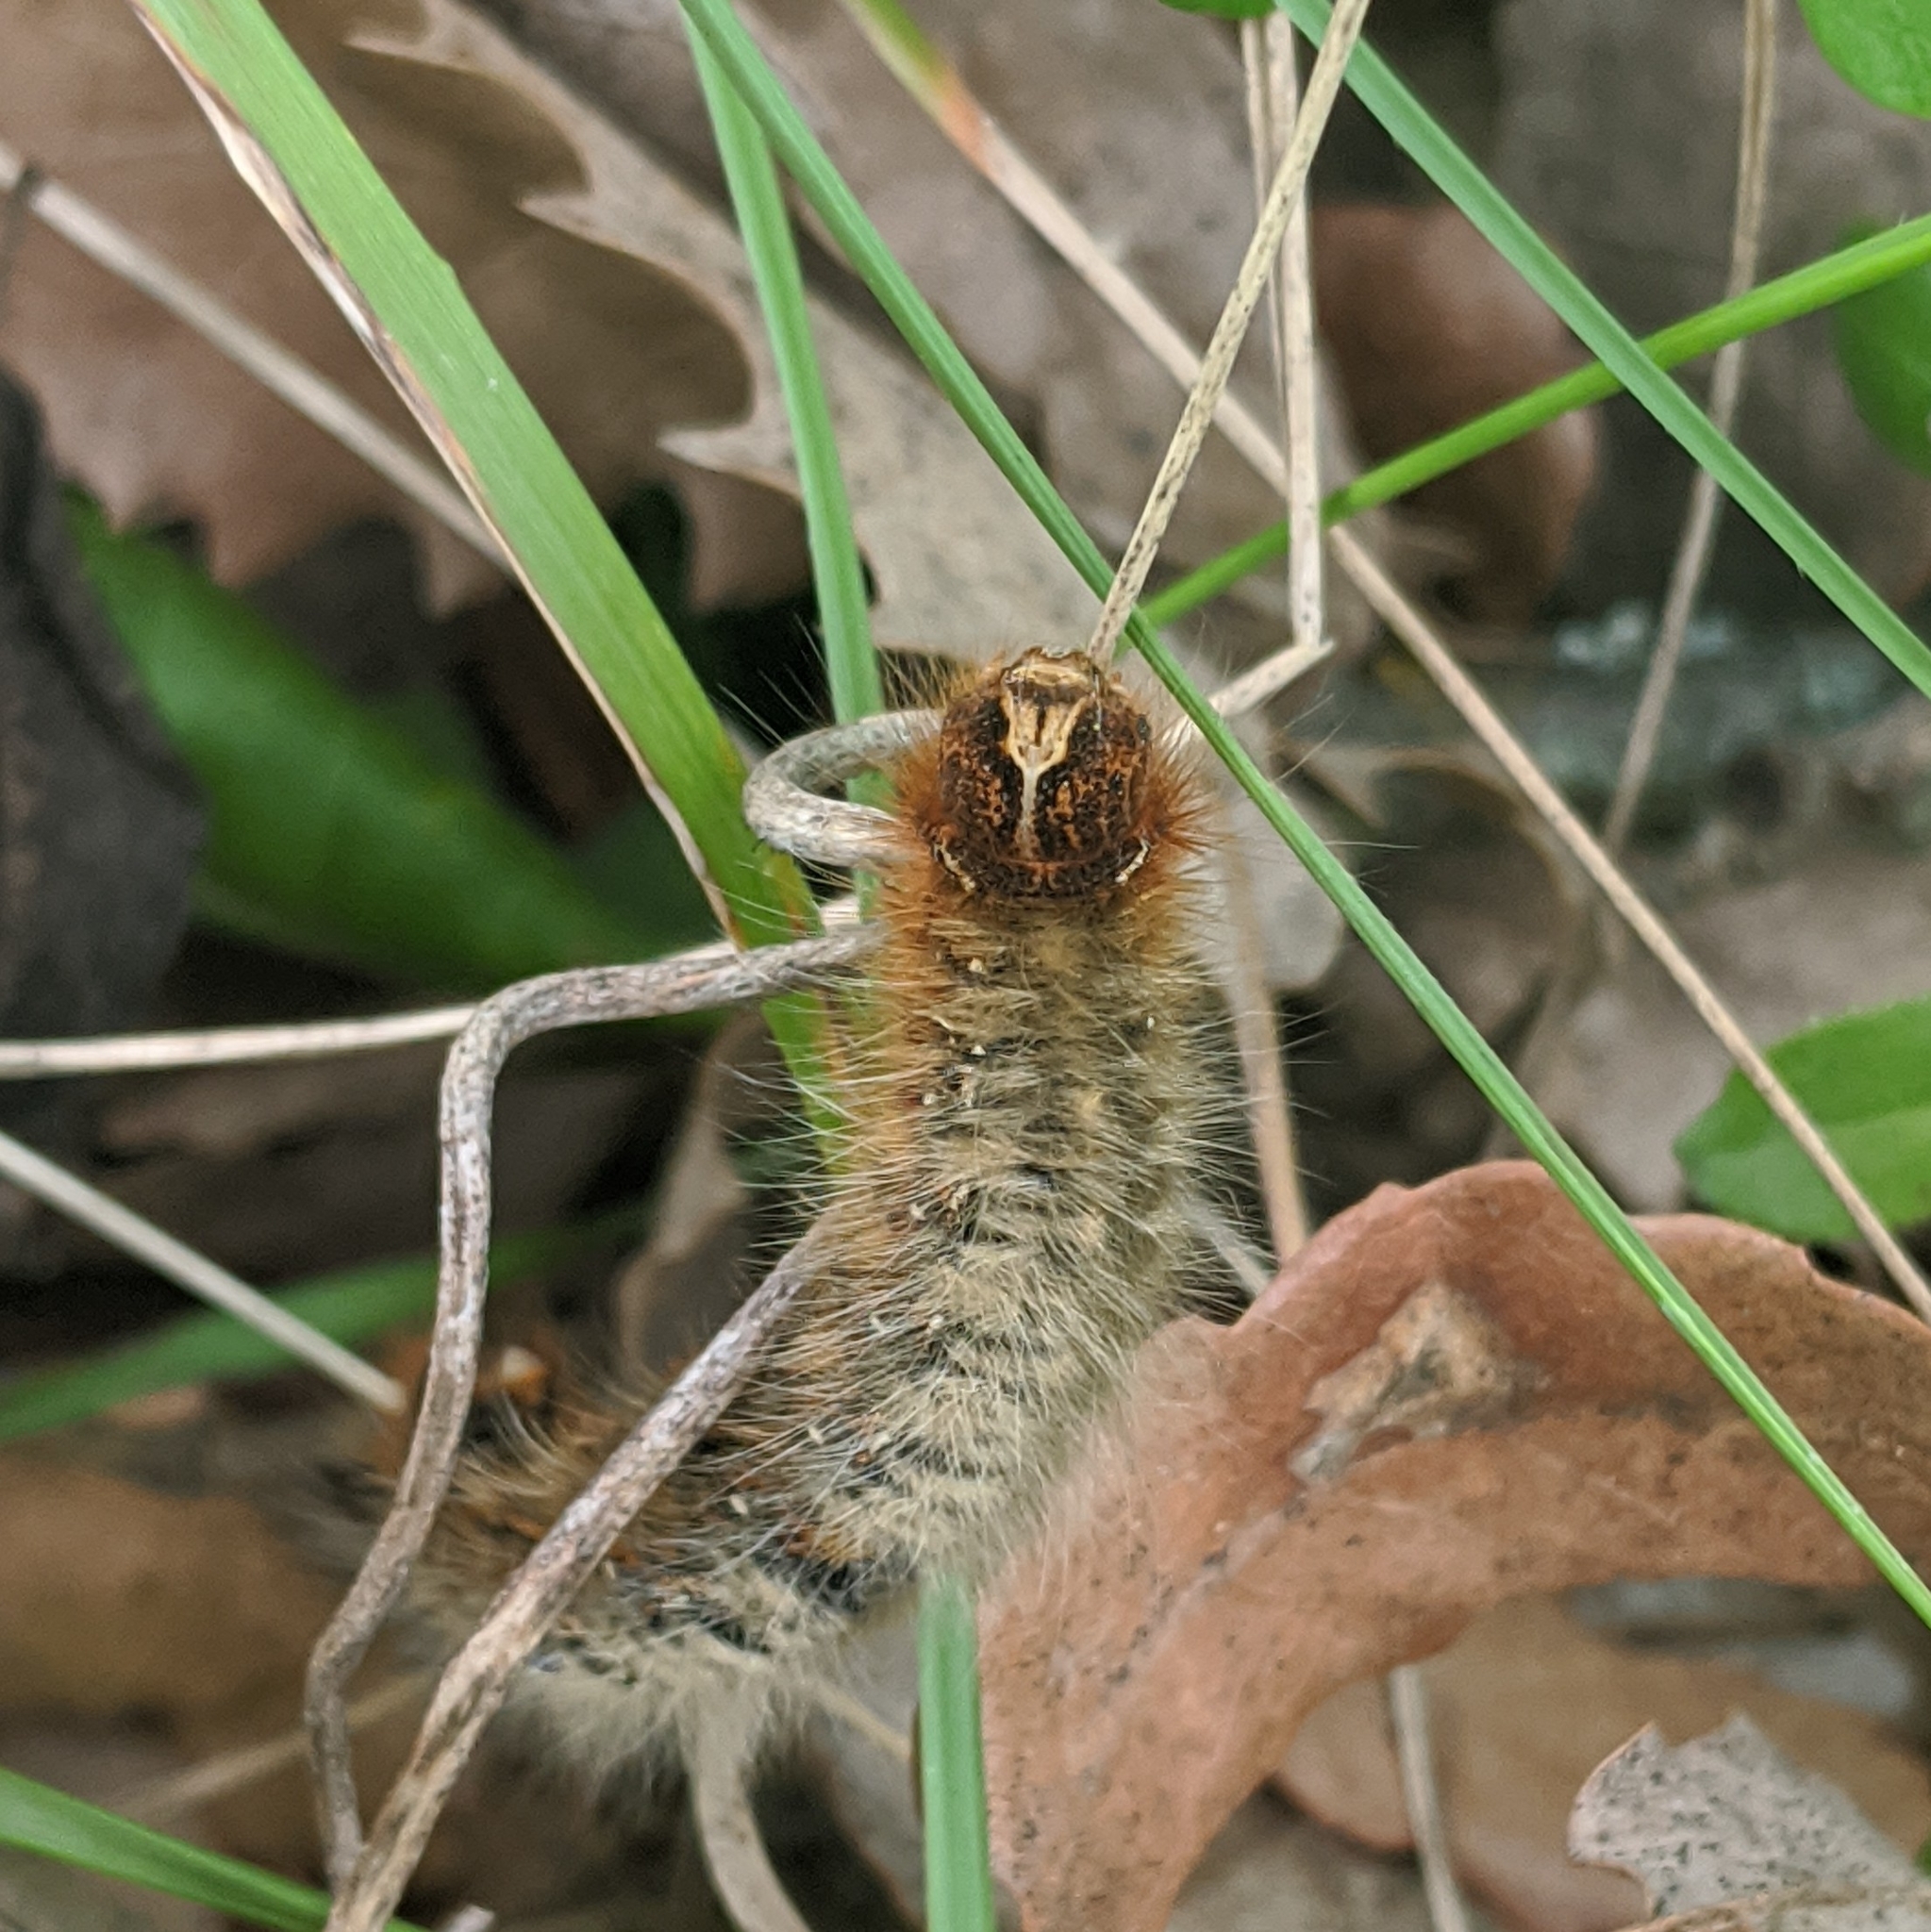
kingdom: Animalia
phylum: Arthropoda
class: Insecta
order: Lepidoptera
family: Lasiocampidae
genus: Lasiocampa
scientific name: Lasiocampa quercus
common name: Oak eggar
